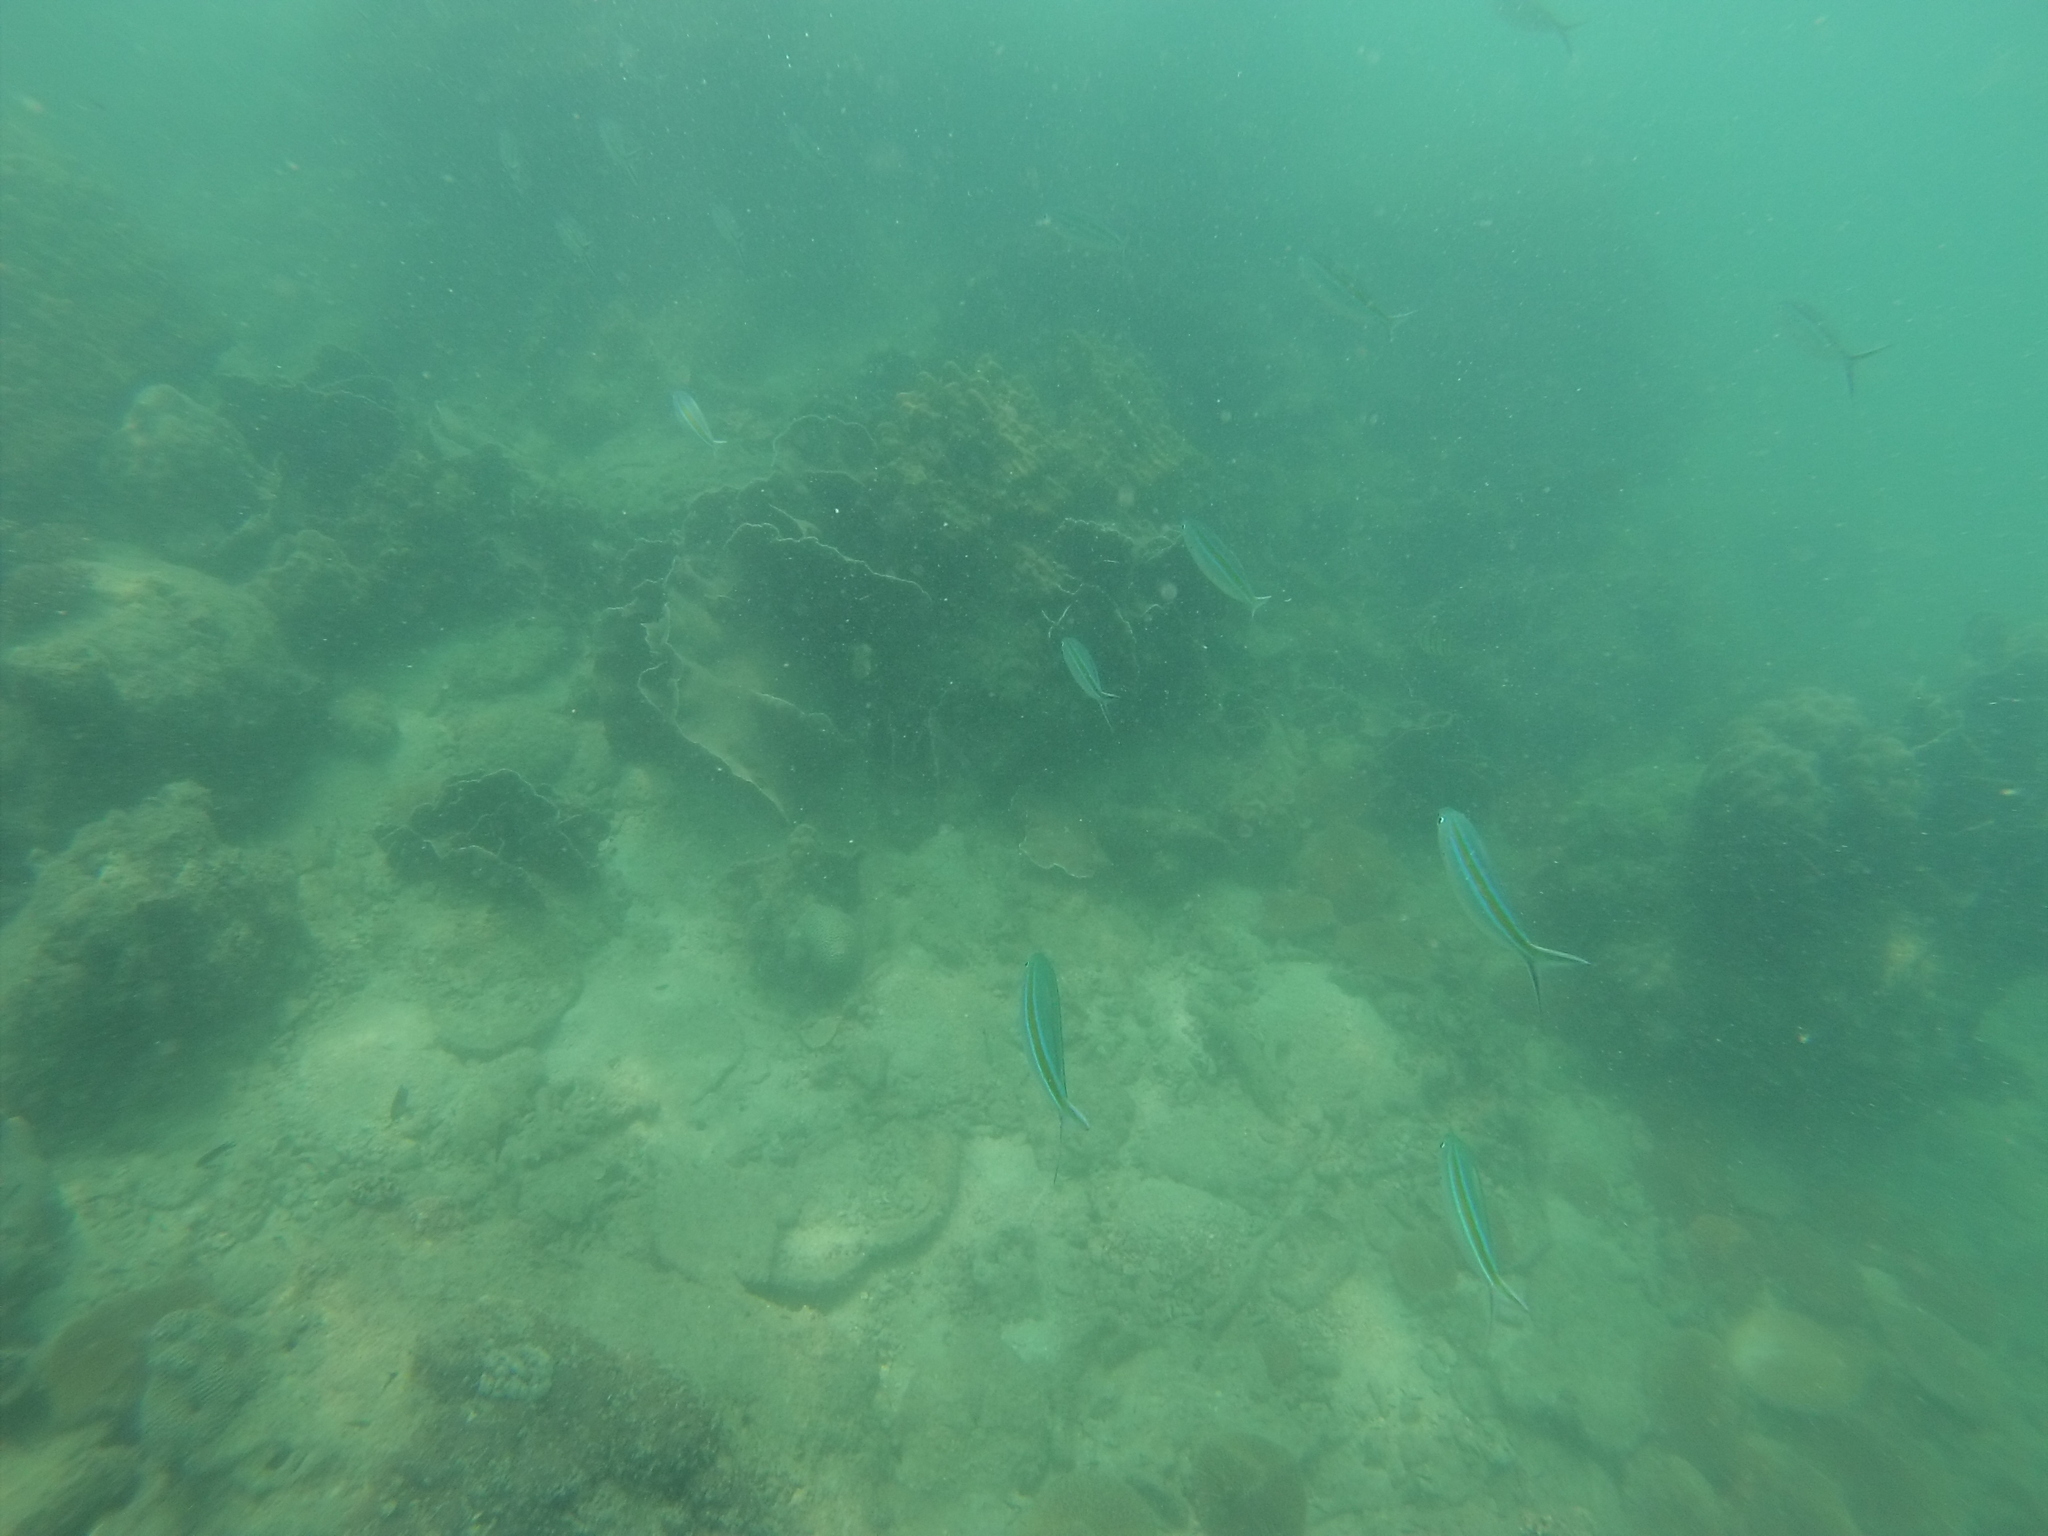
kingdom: Animalia
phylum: Chordata
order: Perciformes
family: Caesionidae
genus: Caesio
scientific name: Caesio caerulaurea
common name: Blue and gold fusilier
